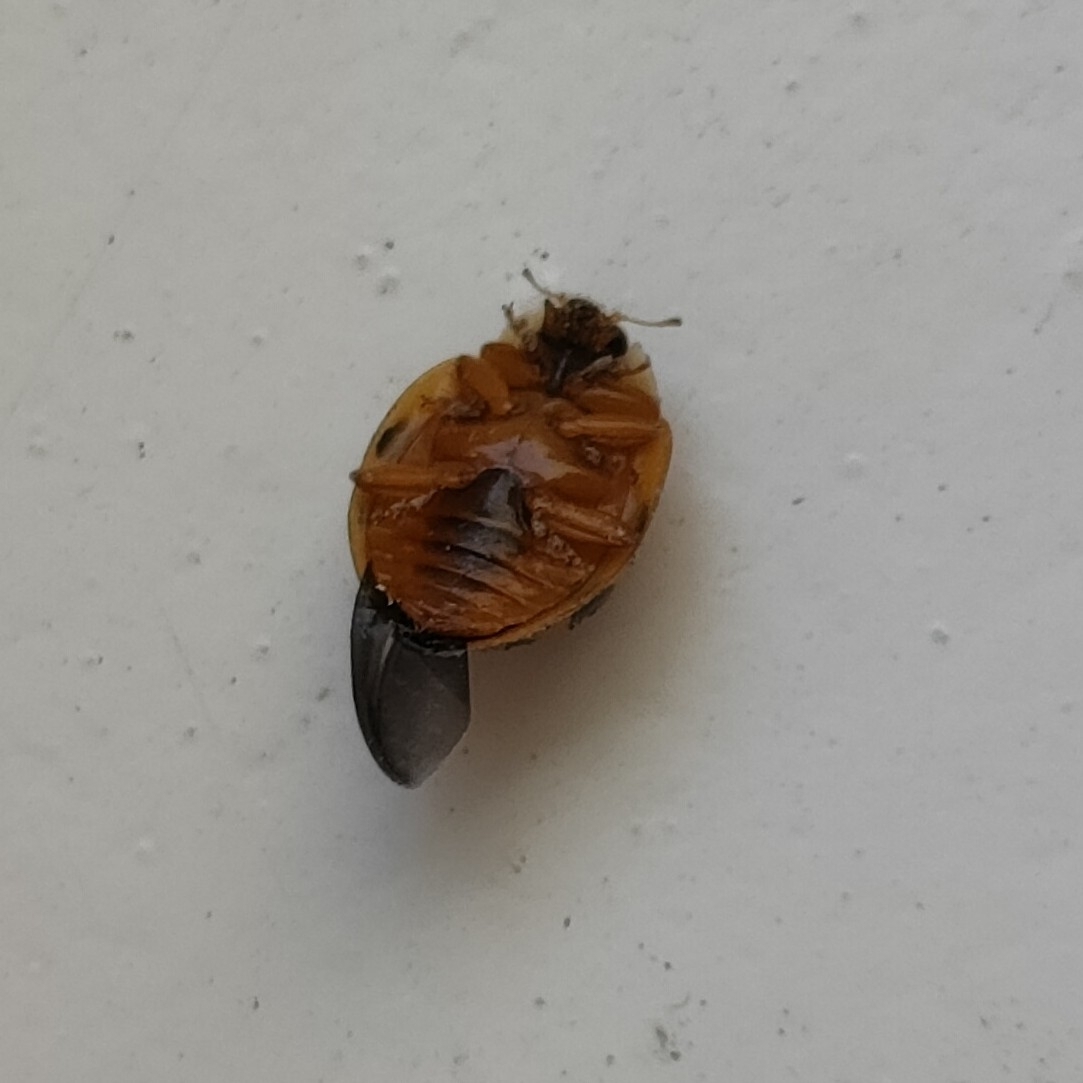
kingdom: Animalia
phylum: Arthropoda
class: Insecta
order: Coleoptera
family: Coccinellidae
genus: Harmonia
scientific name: Harmonia axyridis
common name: Harlequin ladybird
